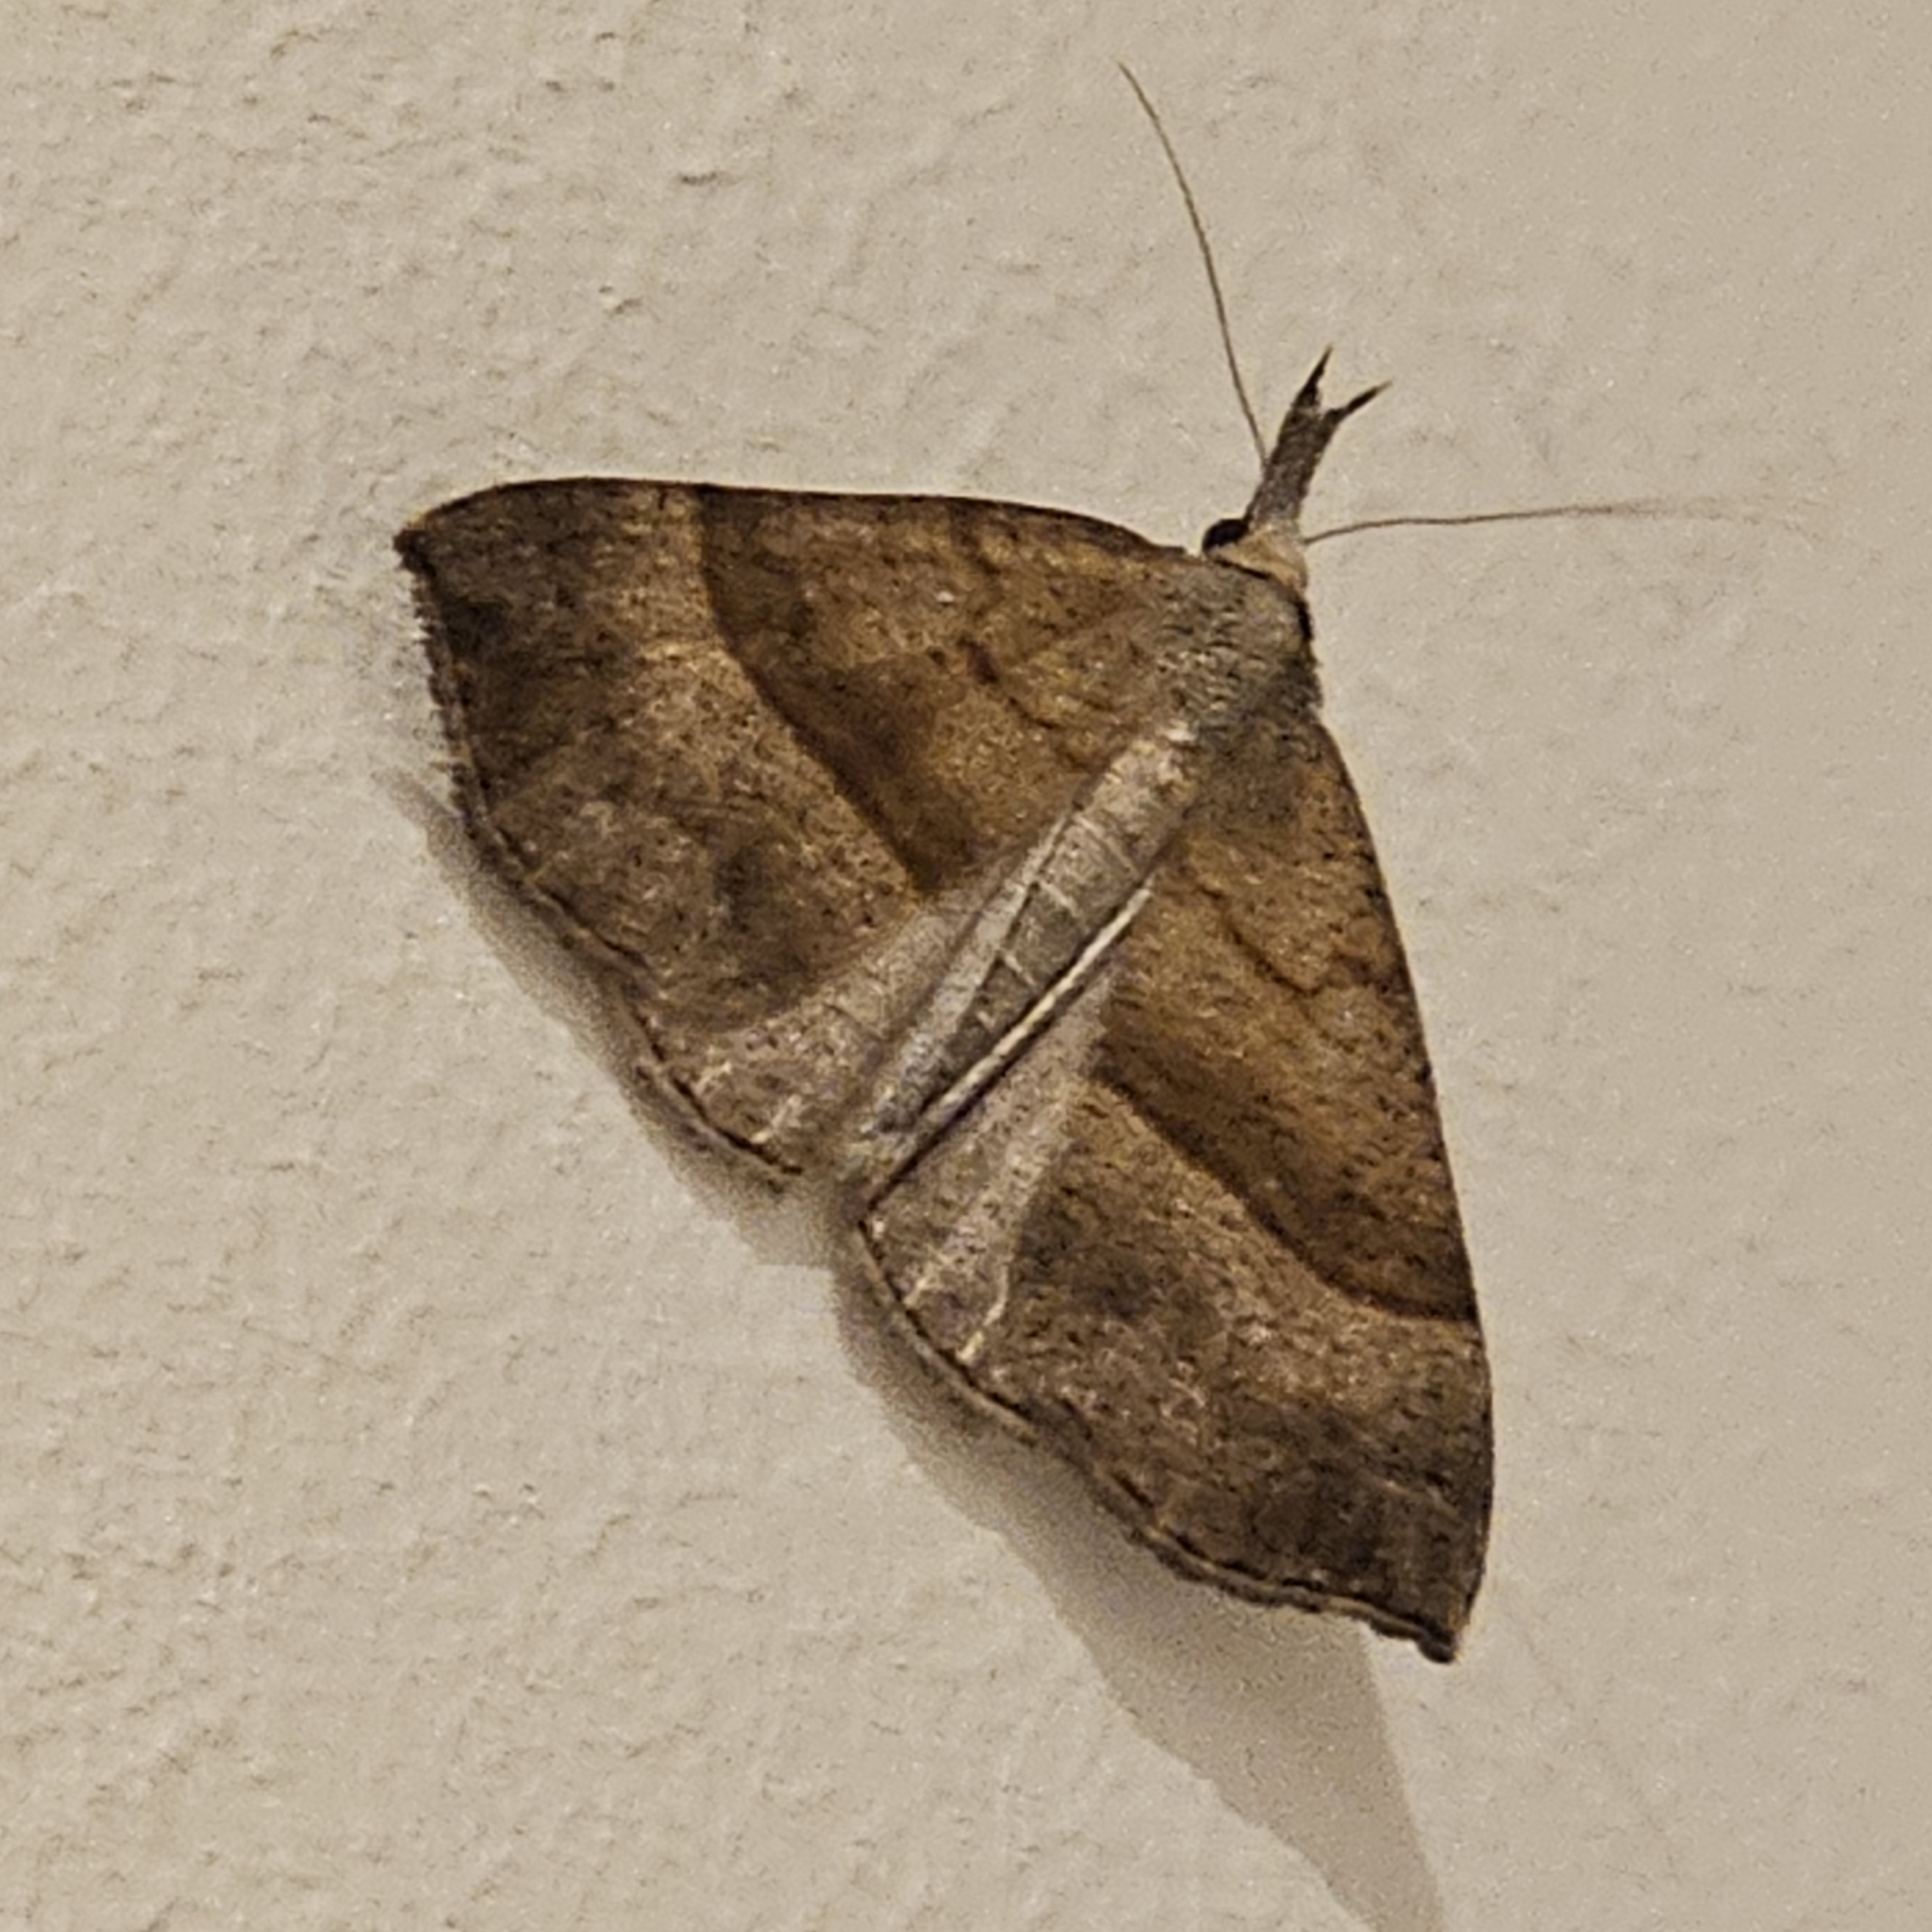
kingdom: Animalia
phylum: Arthropoda
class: Insecta
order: Lepidoptera
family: Erebidae
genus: Hypena
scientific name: Hypena proboscidalis
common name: Snout
